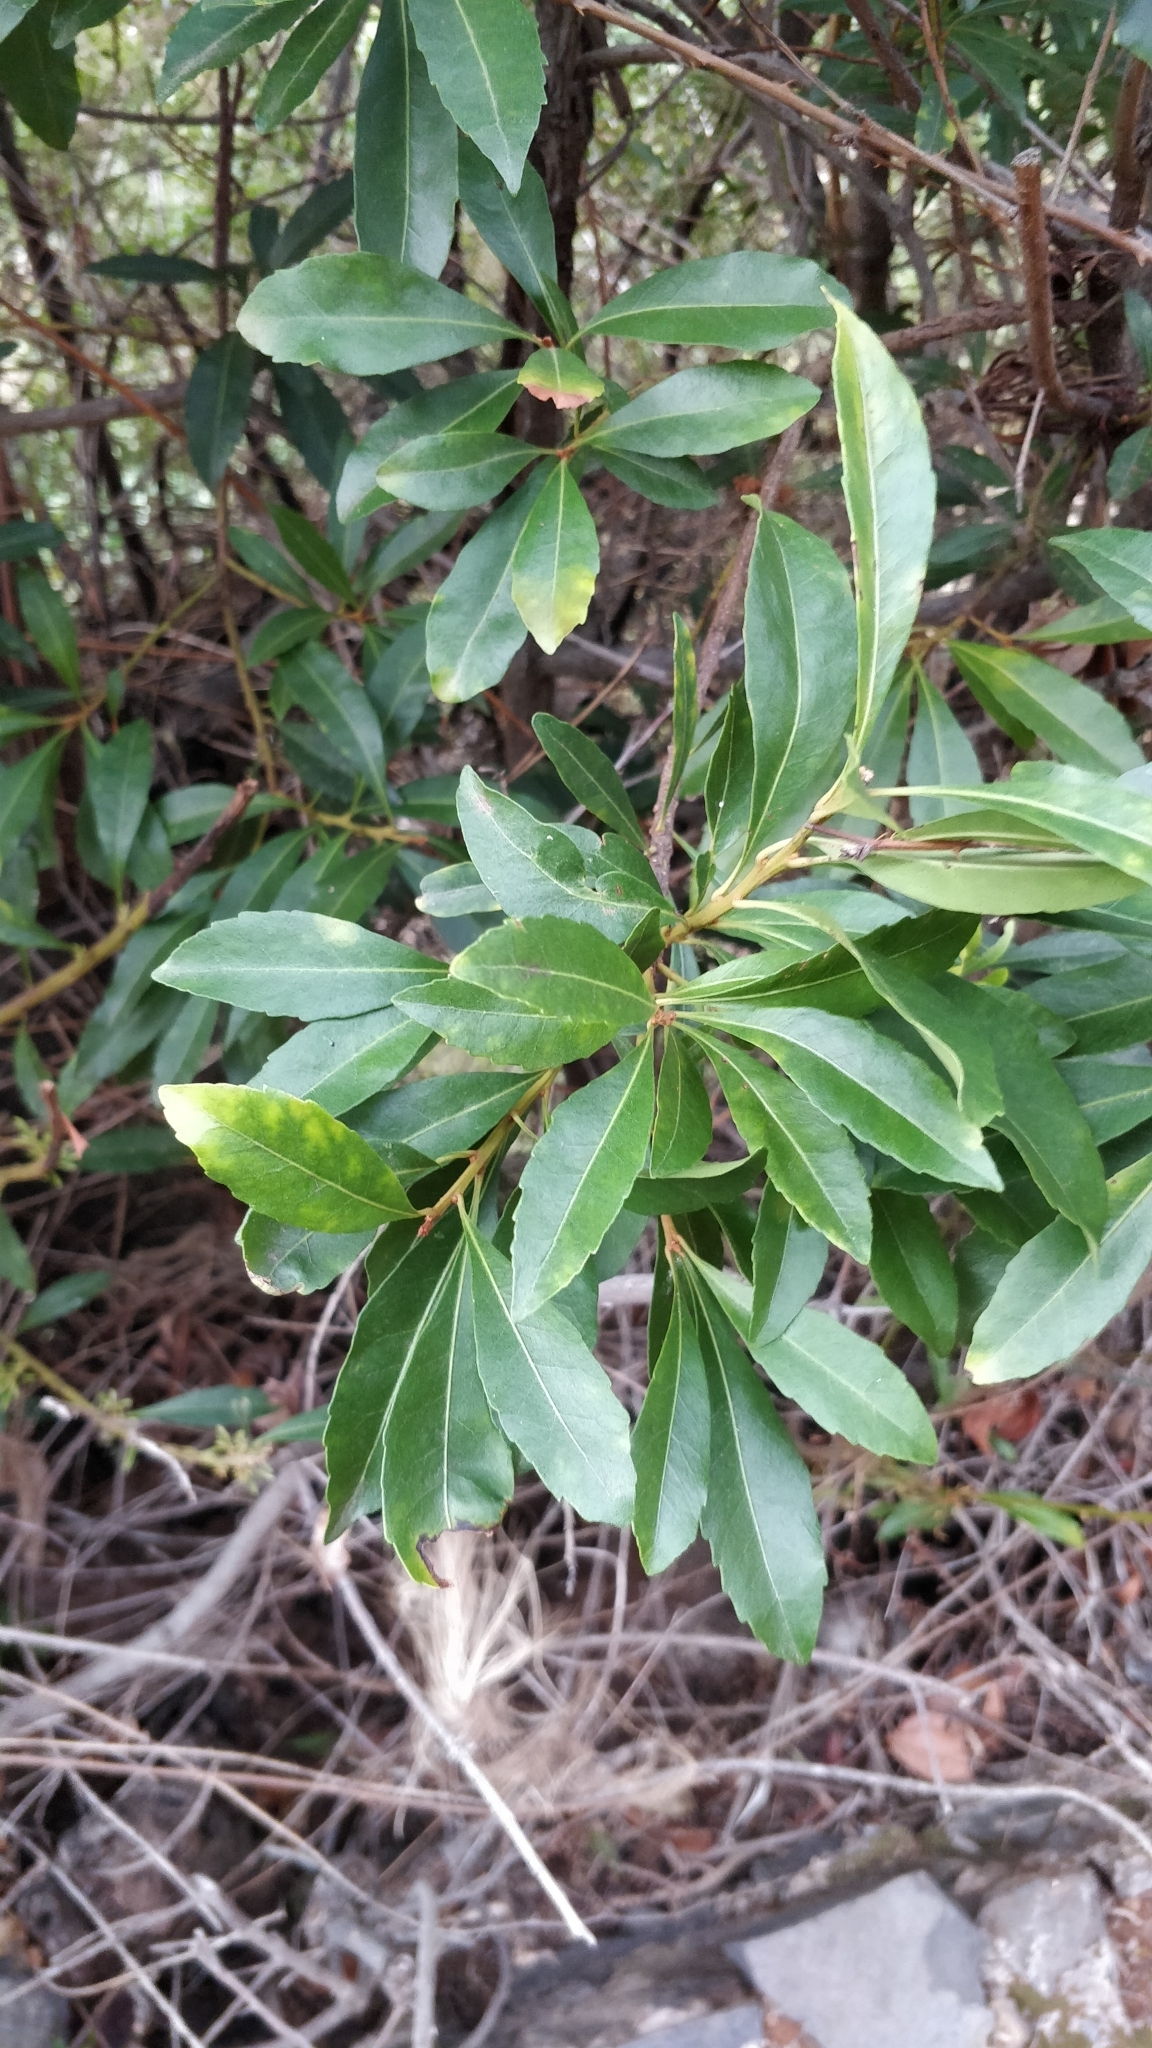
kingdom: Plantae
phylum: Tracheophyta
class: Magnoliopsida
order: Fagales
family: Myricaceae
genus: Morella
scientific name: Morella faya
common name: Firetree
